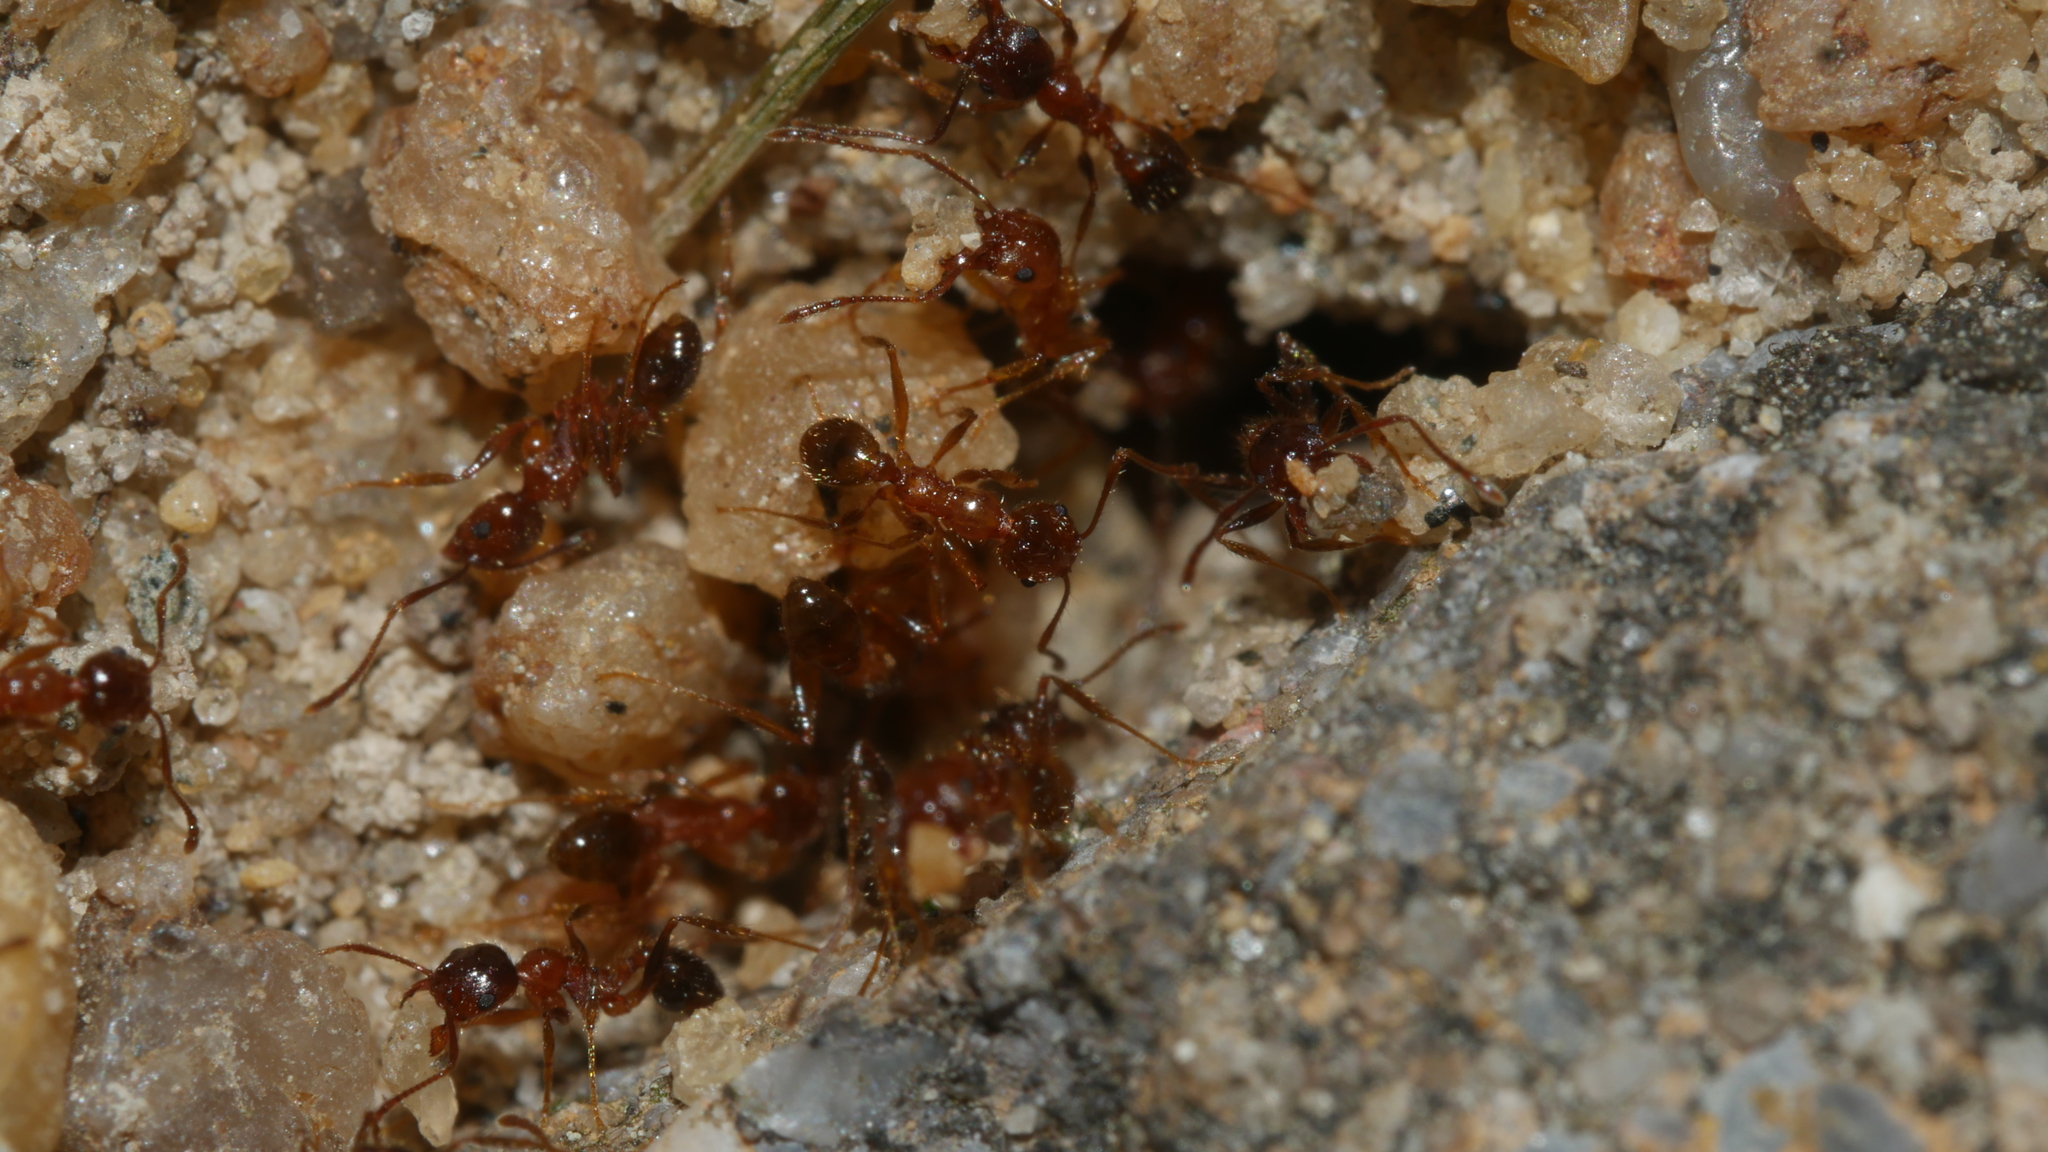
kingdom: Animalia
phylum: Arthropoda
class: Insecta
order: Hymenoptera
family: Formicidae
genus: Pheidole
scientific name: Pheidole dentata
